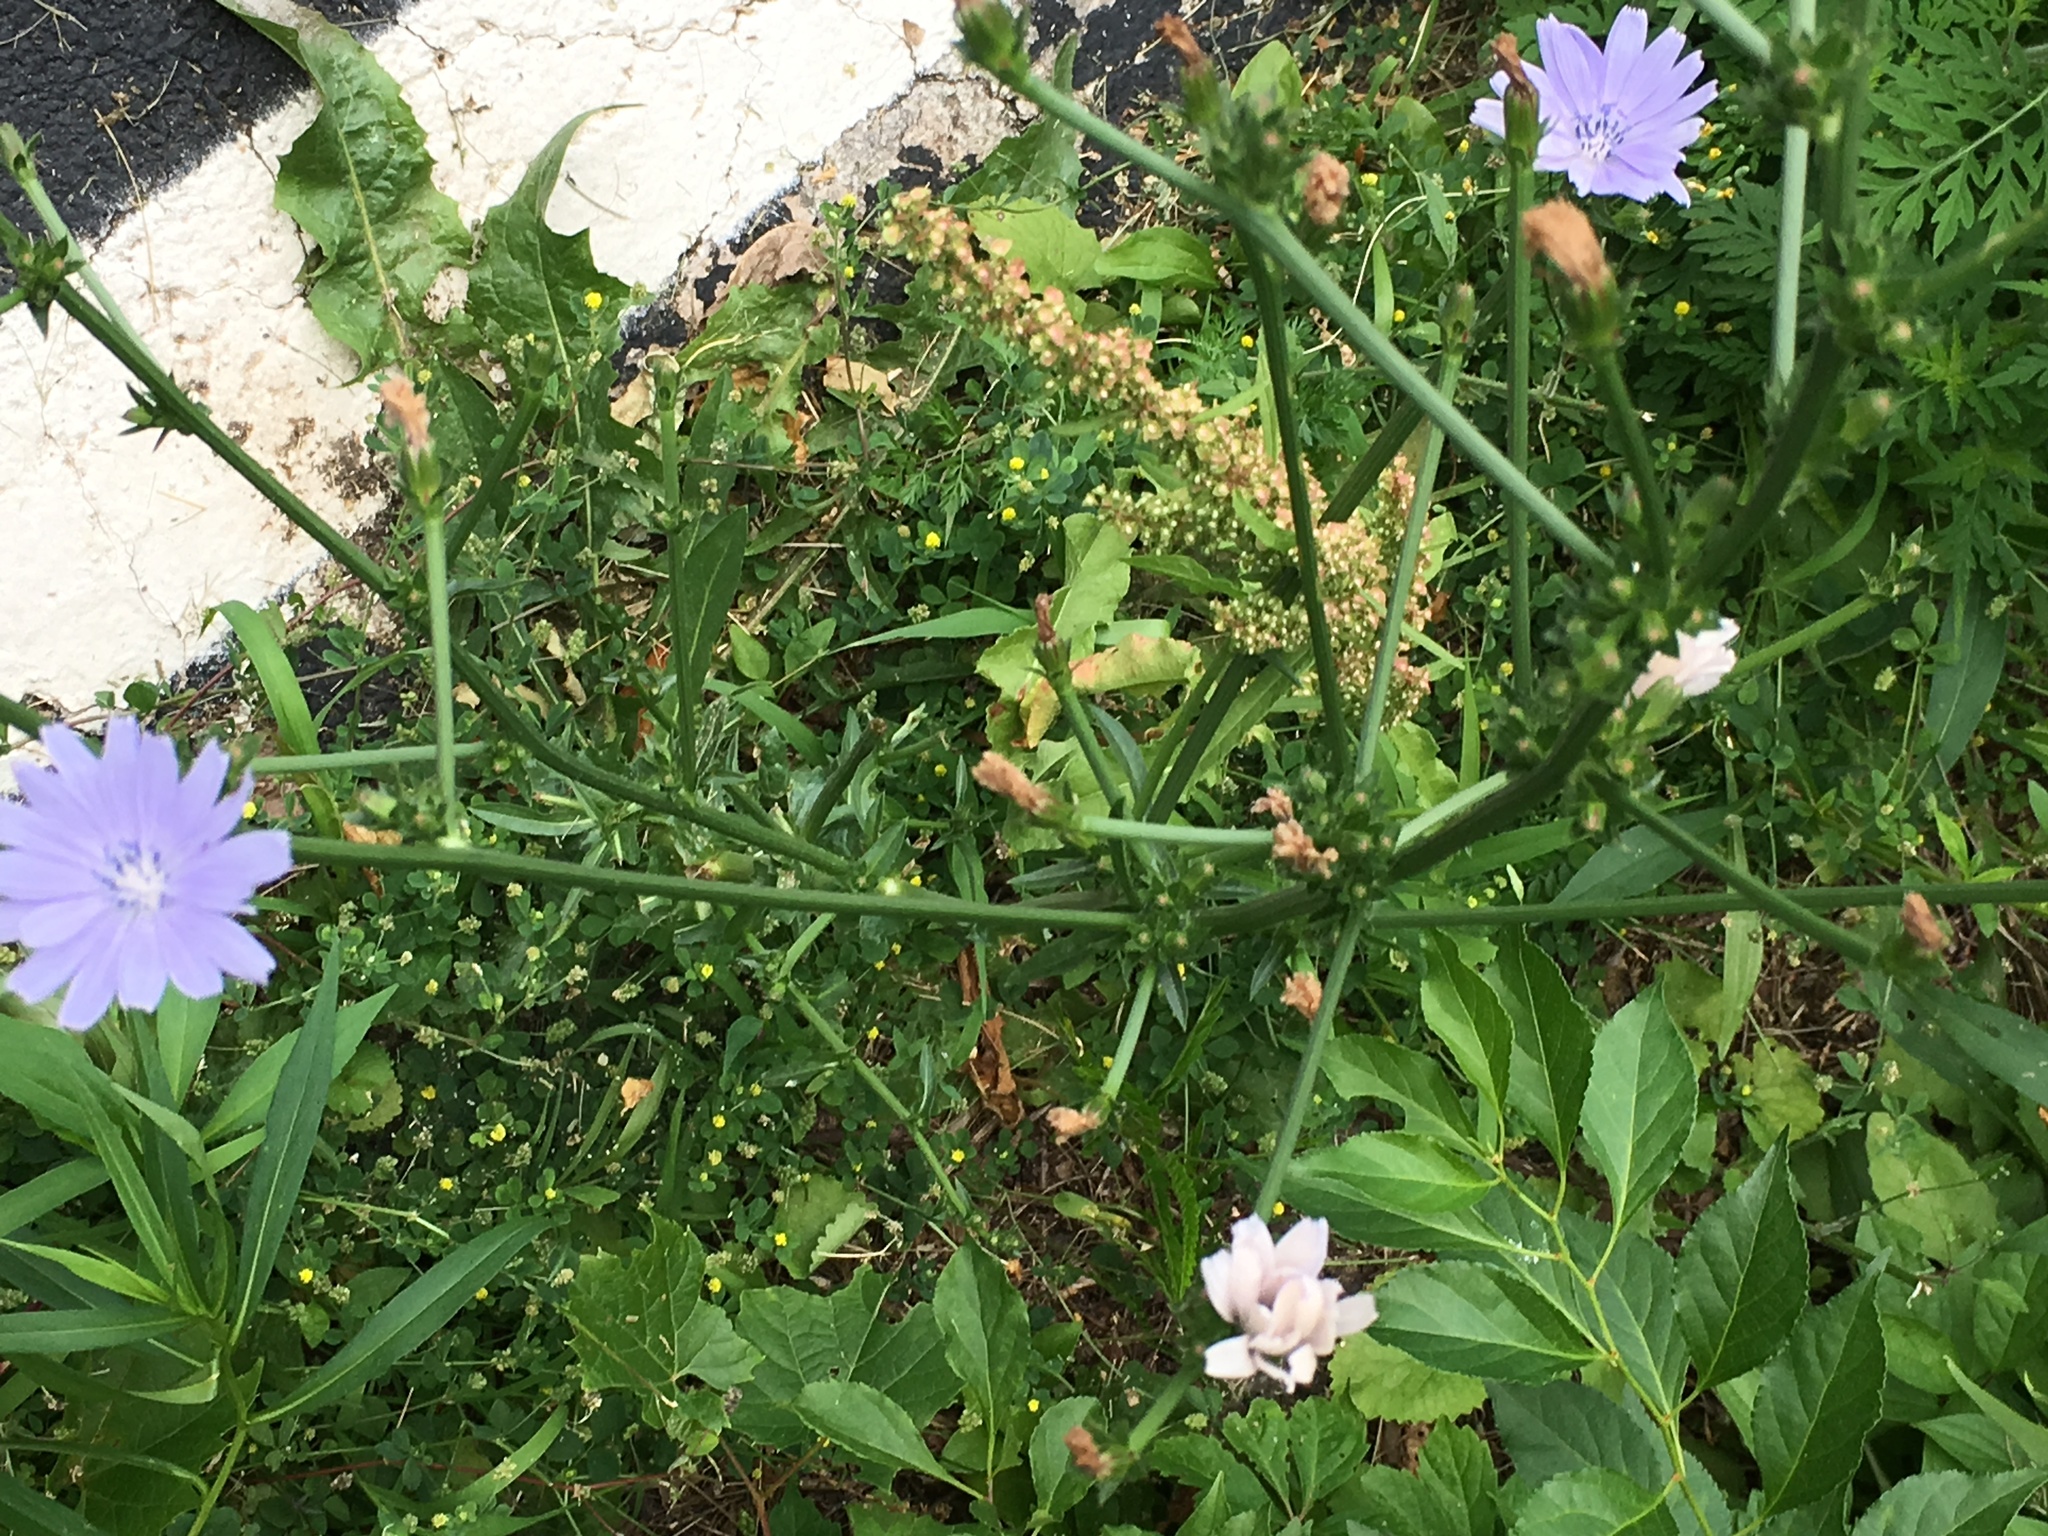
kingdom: Plantae
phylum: Tracheophyta
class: Magnoliopsida
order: Asterales
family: Asteraceae
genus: Cichorium
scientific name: Cichorium intybus
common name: Chicory
